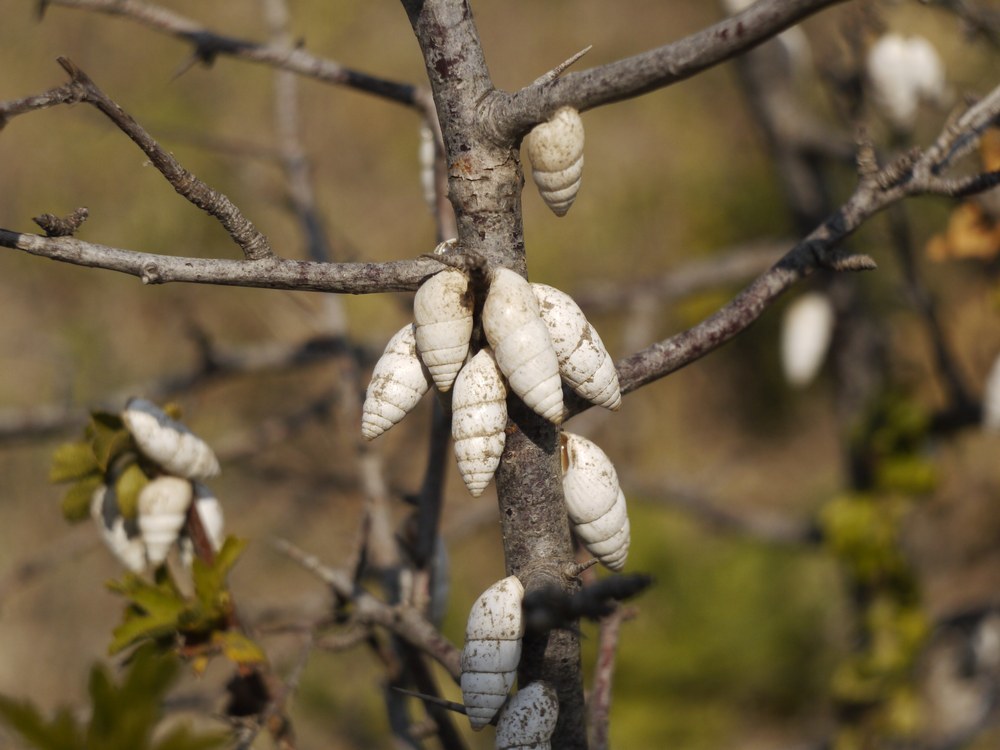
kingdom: Animalia
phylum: Mollusca
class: Gastropoda
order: Stylommatophora
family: Enidae
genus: Brephulopsis
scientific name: Brephulopsis cylindrica
